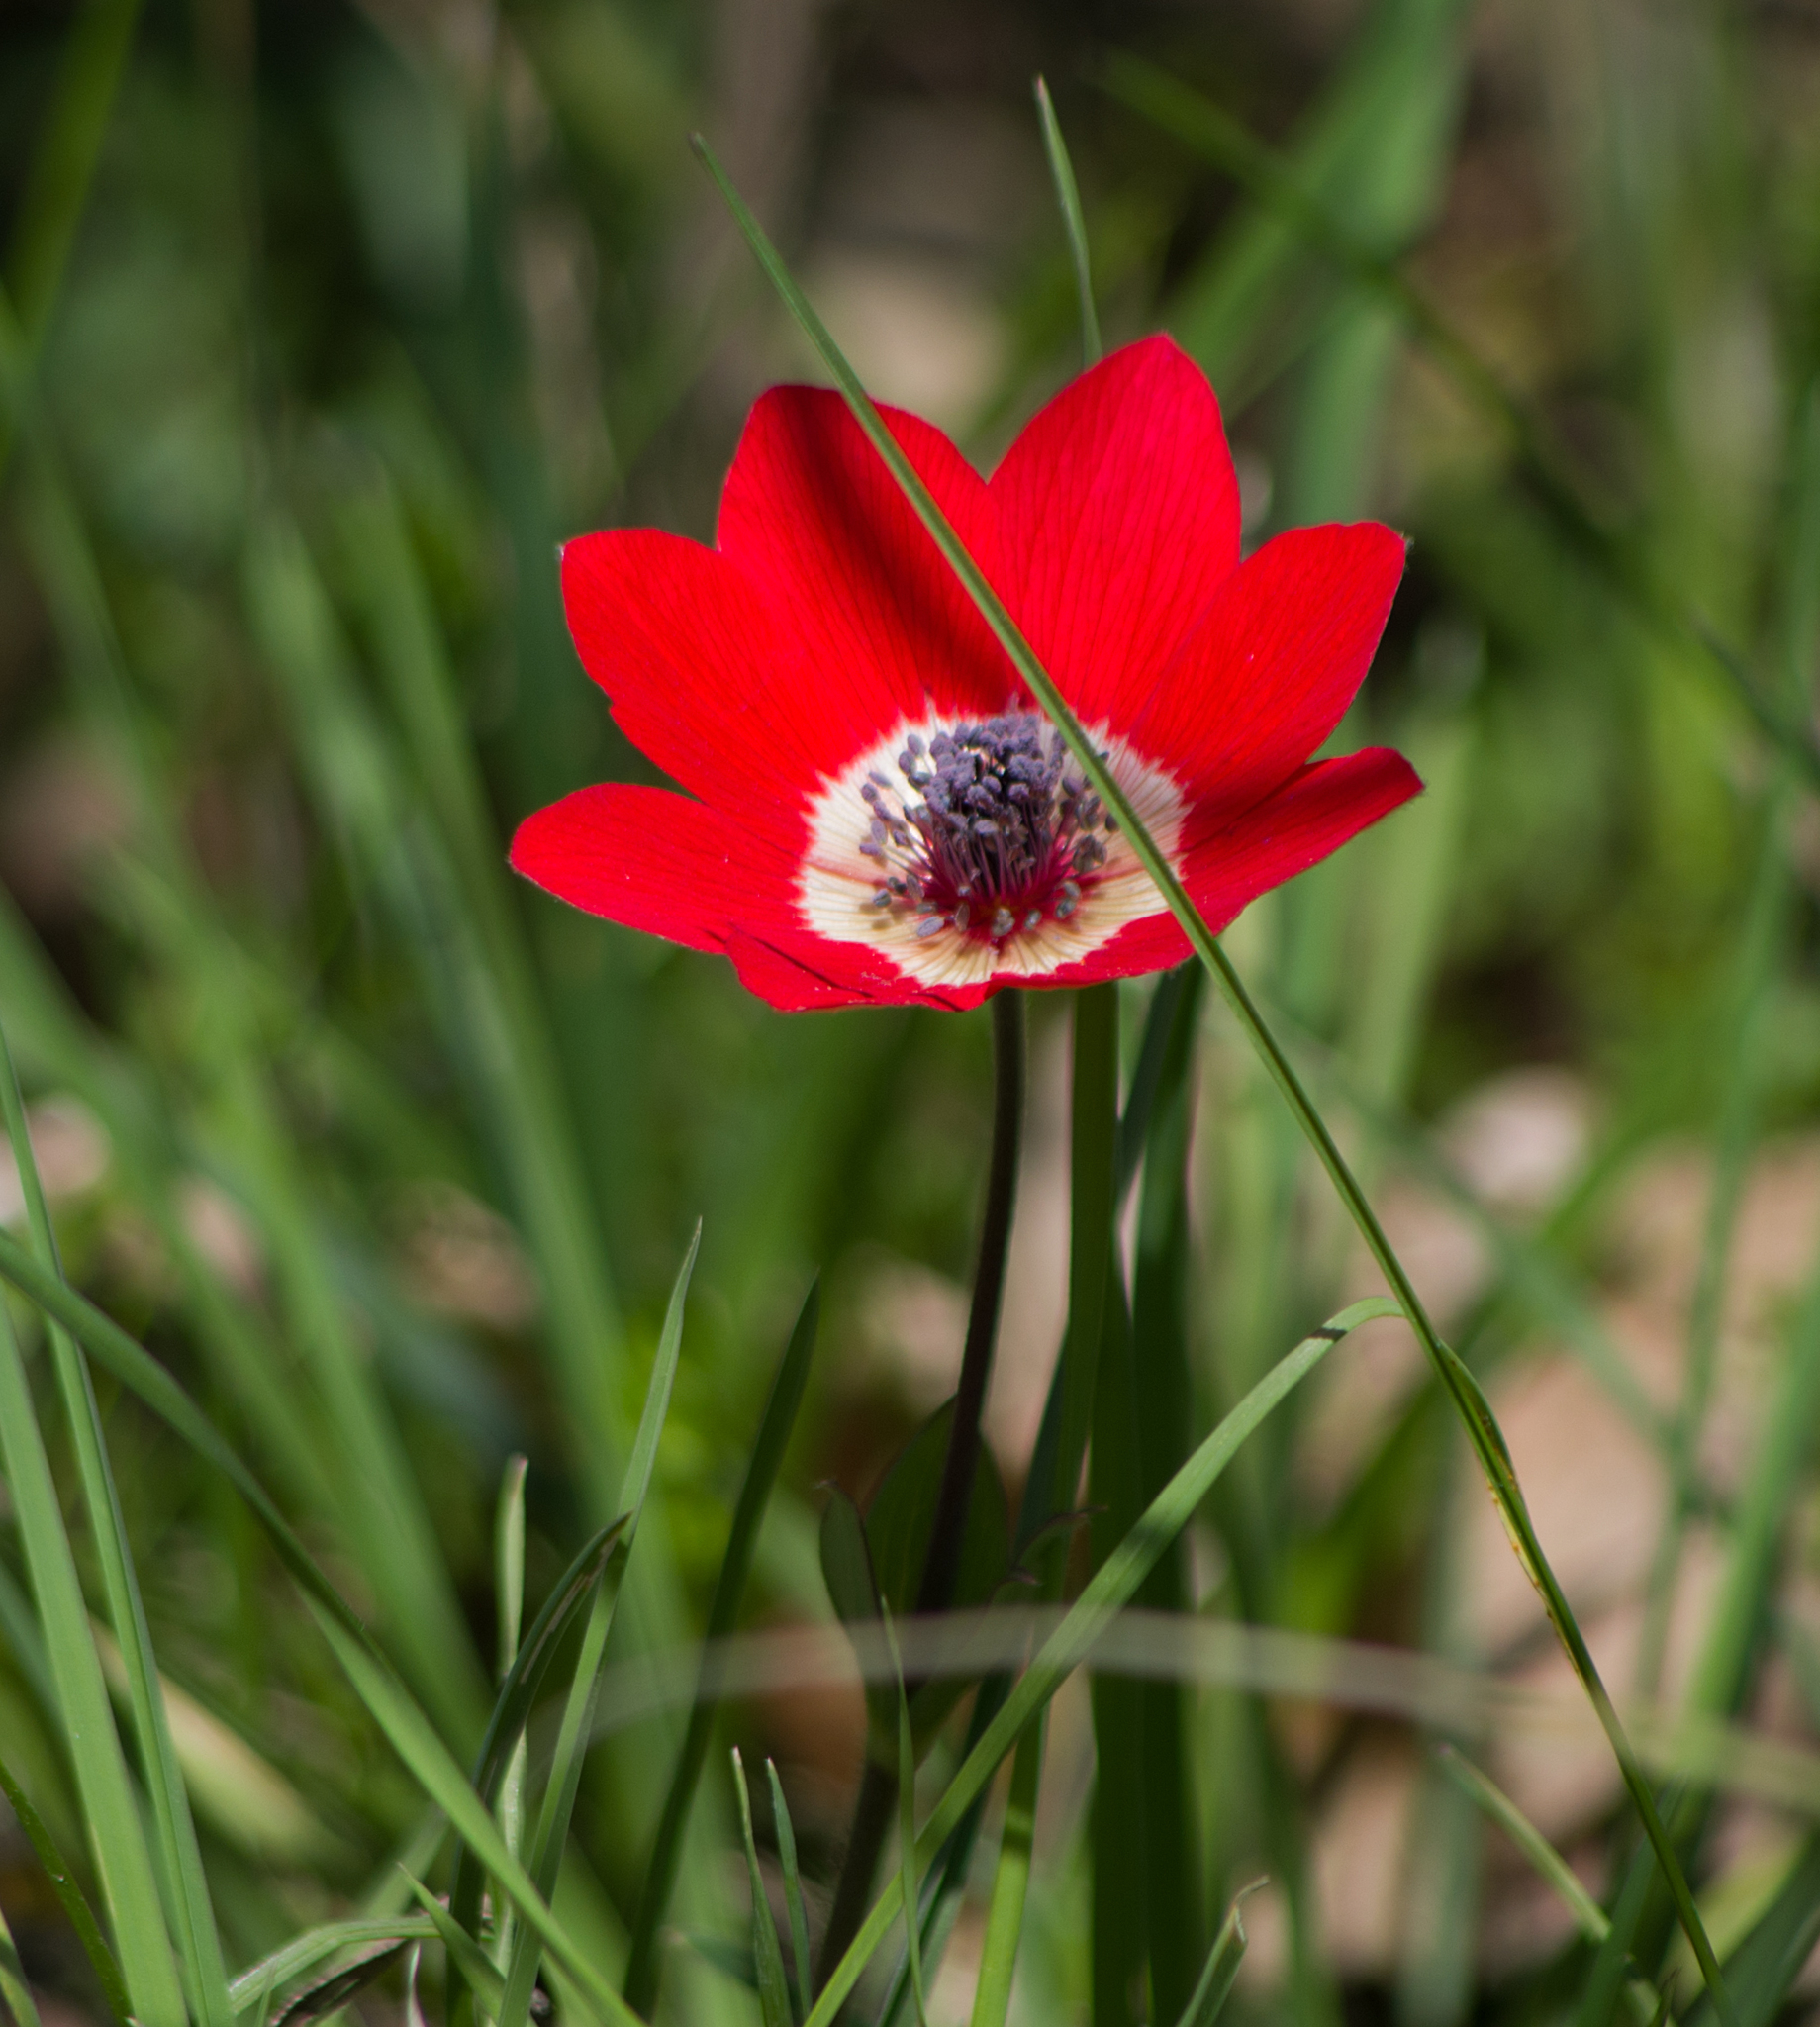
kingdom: Plantae
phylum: Tracheophyta
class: Magnoliopsida
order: Ranunculales
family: Ranunculaceae
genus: Anemone
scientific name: Anemone pavonina
